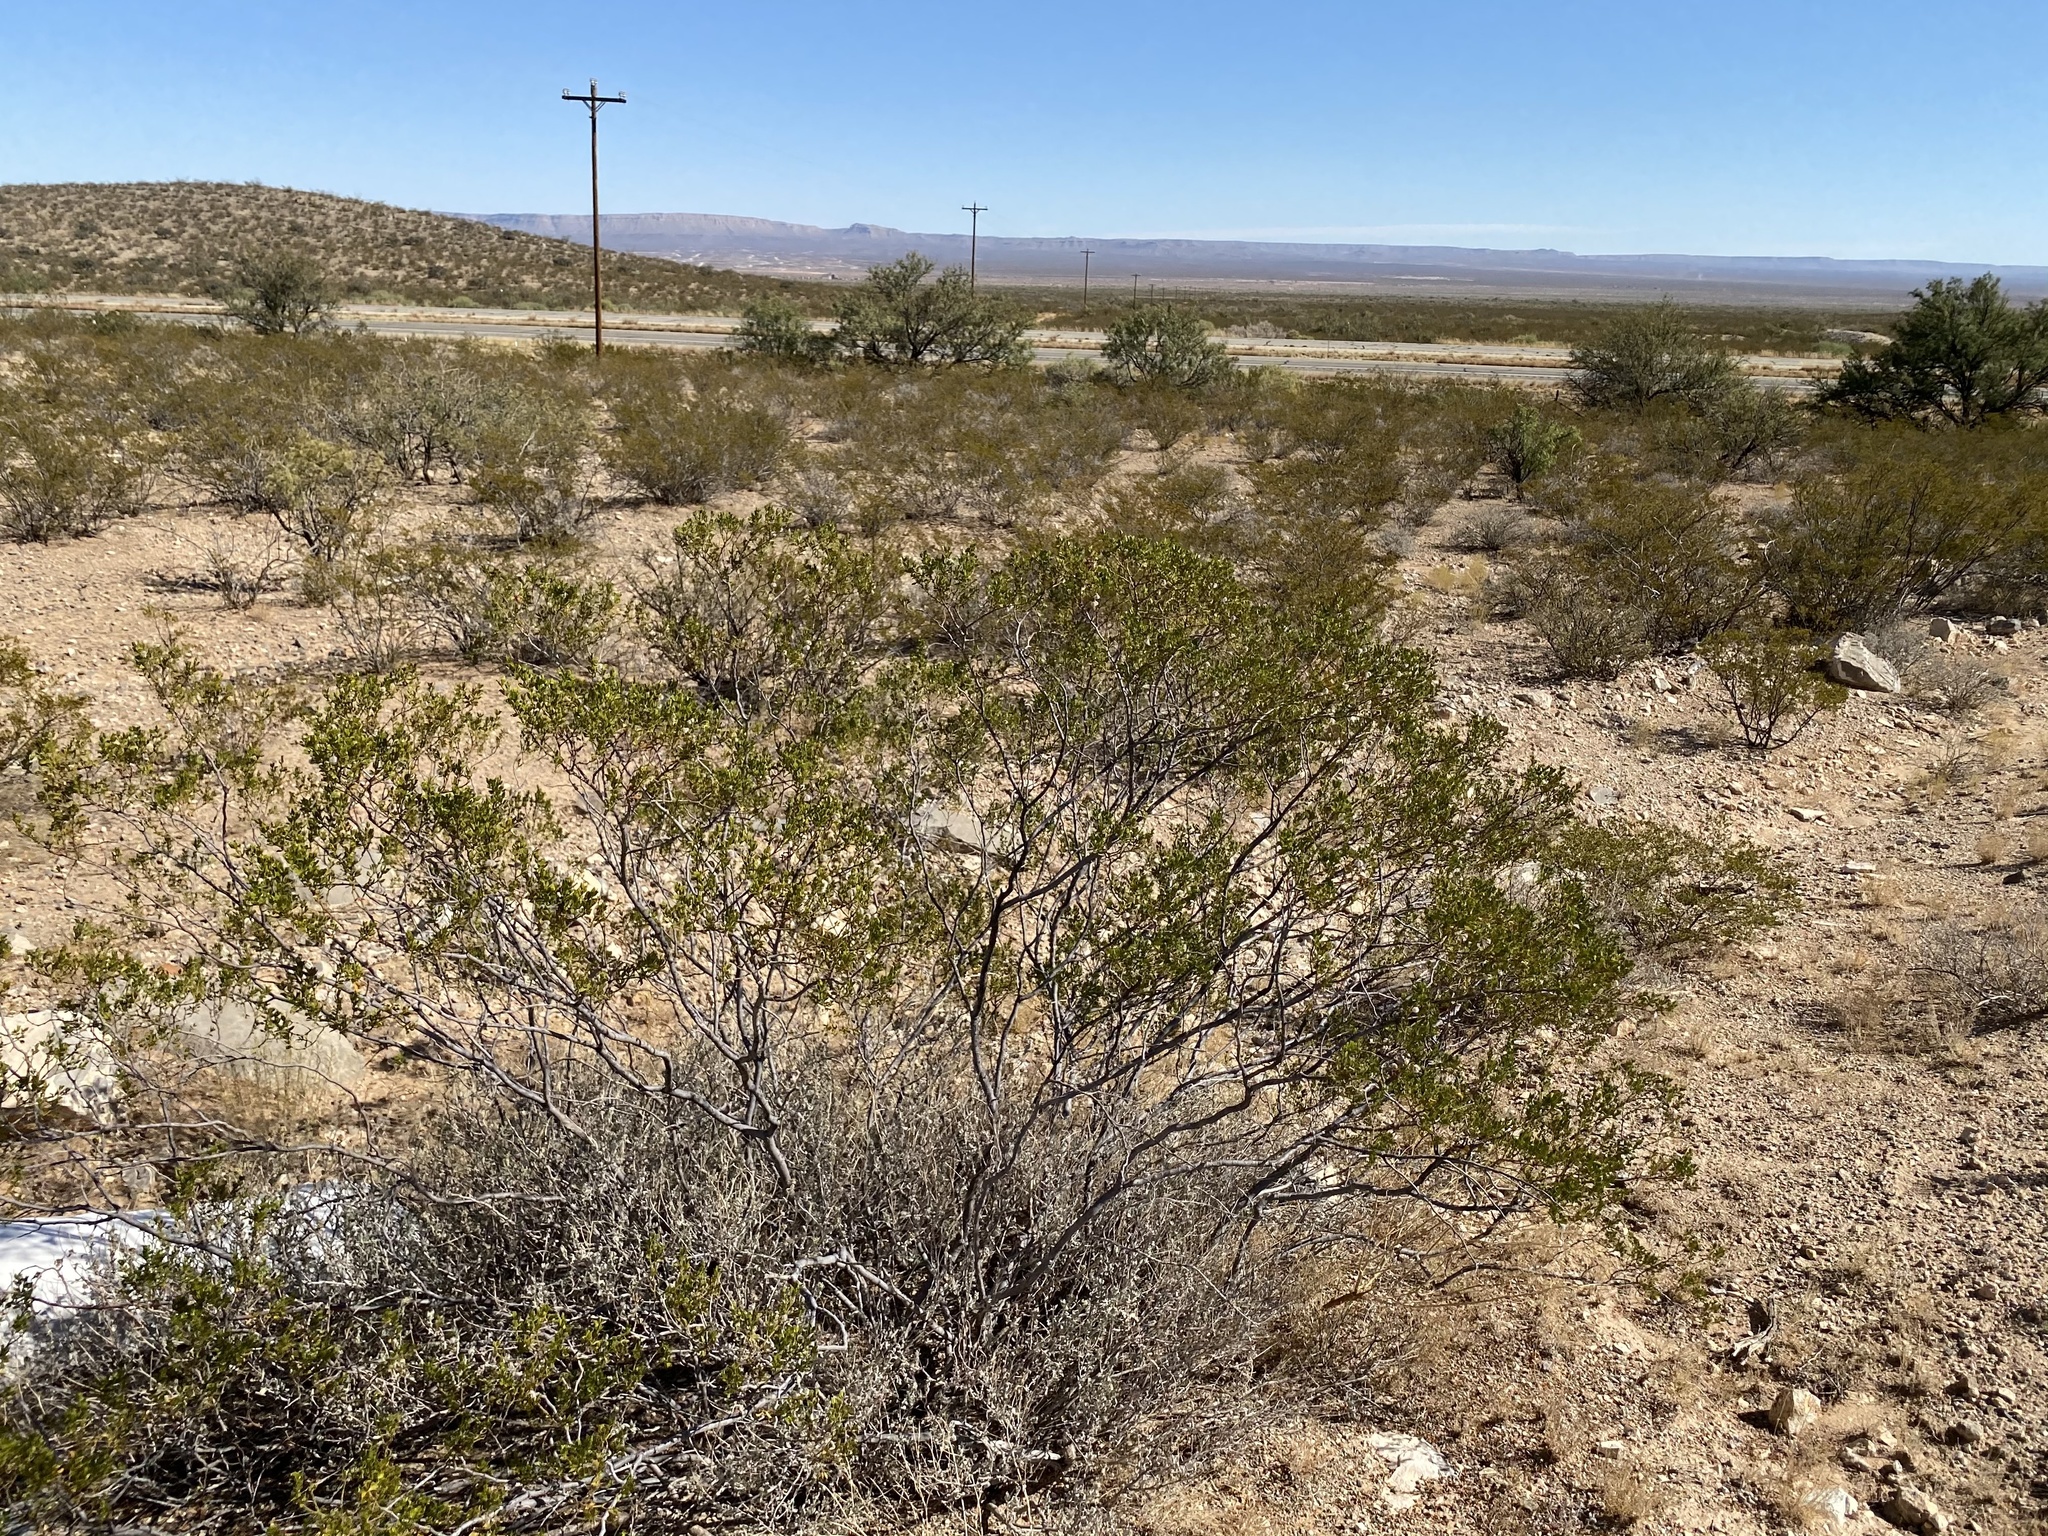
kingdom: Plantae
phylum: Tracheophyta
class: Magnoliopsida
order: Zygophyllales
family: Zygophyllaceae
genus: Larrea
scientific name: Larrea tridentata
